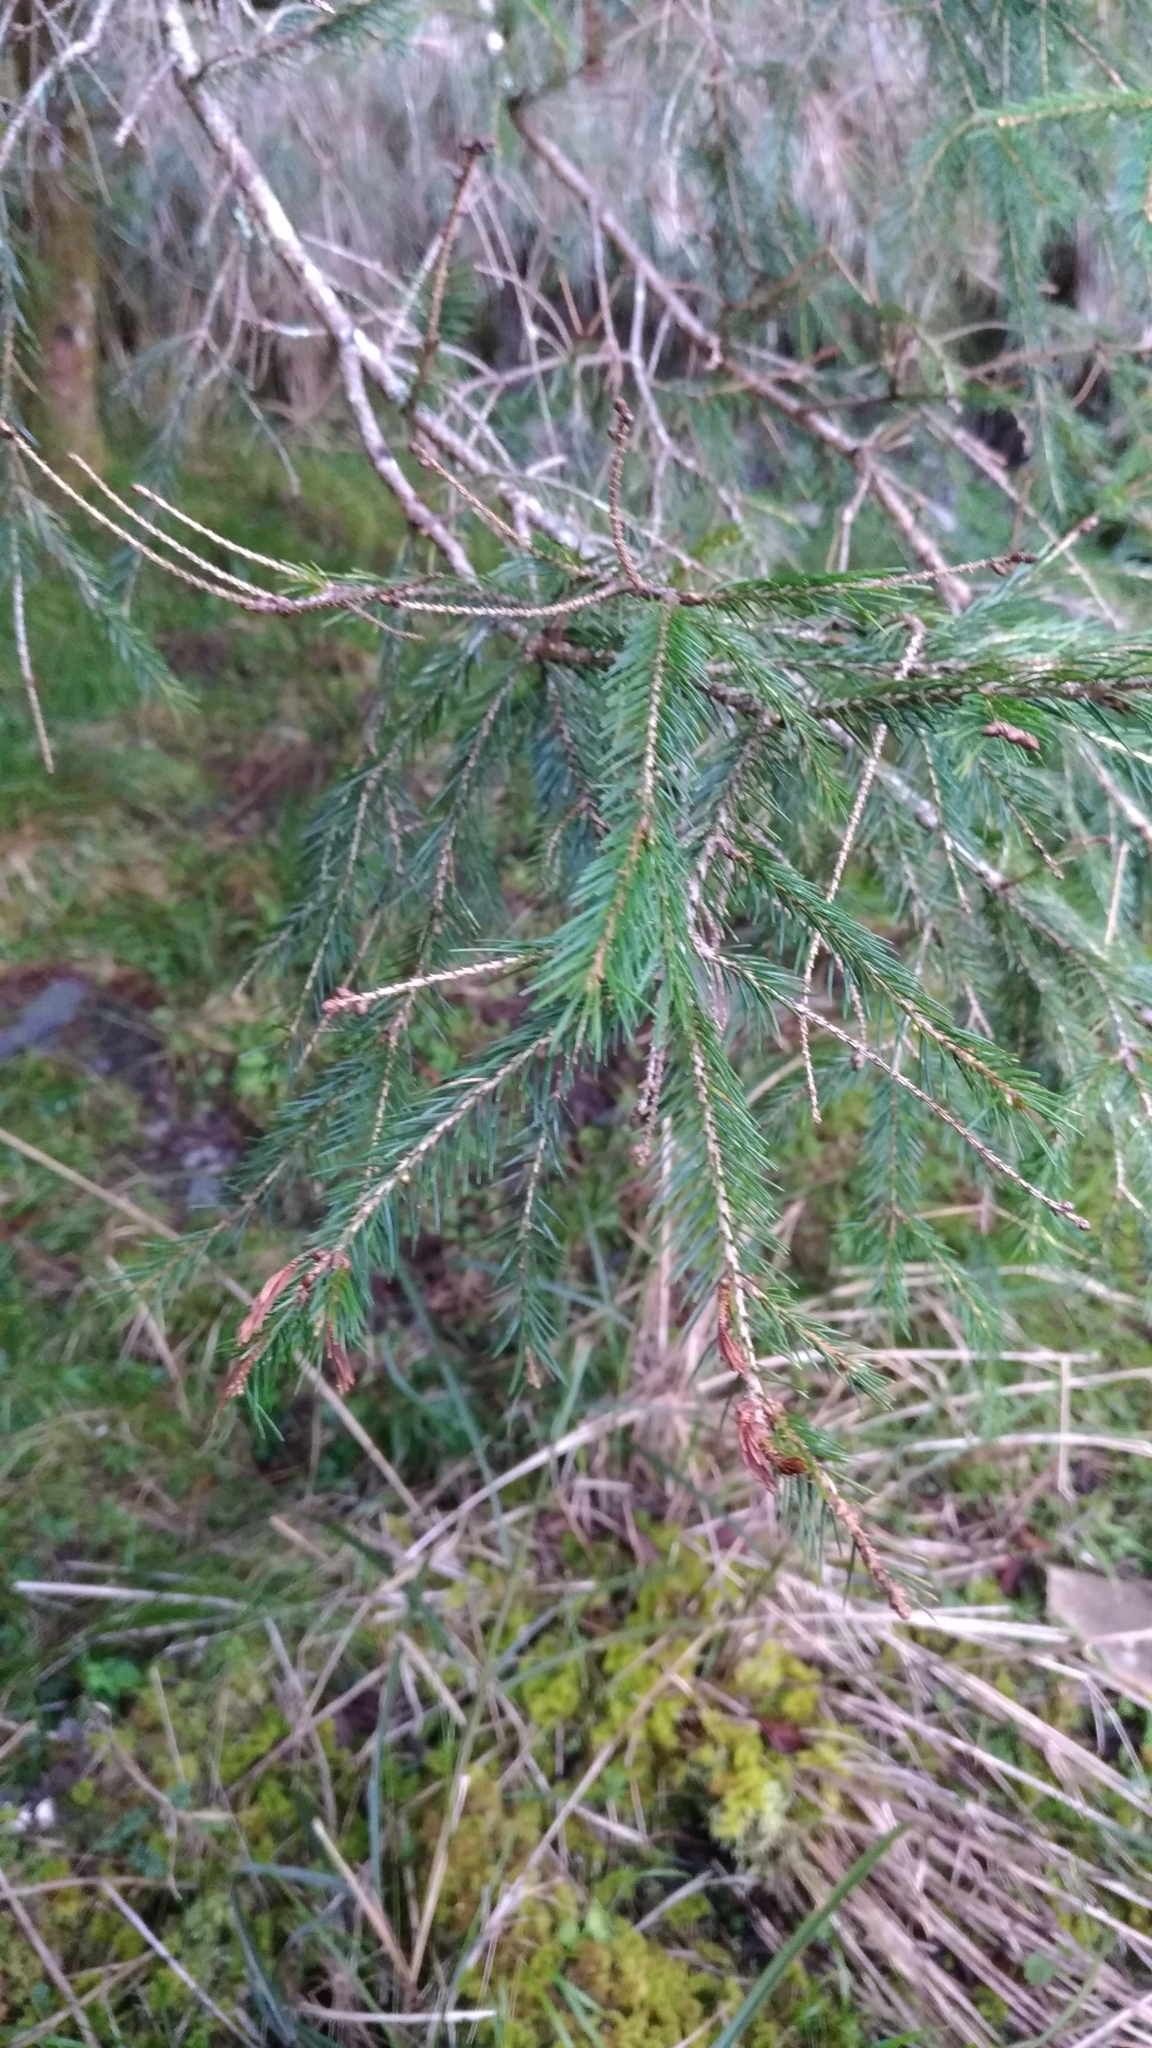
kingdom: Plantae
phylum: Tracheophyta
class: Pinopsida
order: Pinales
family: Pinaceae
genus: Picea
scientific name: Picea morrisonicola
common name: Mount morrison spruce
